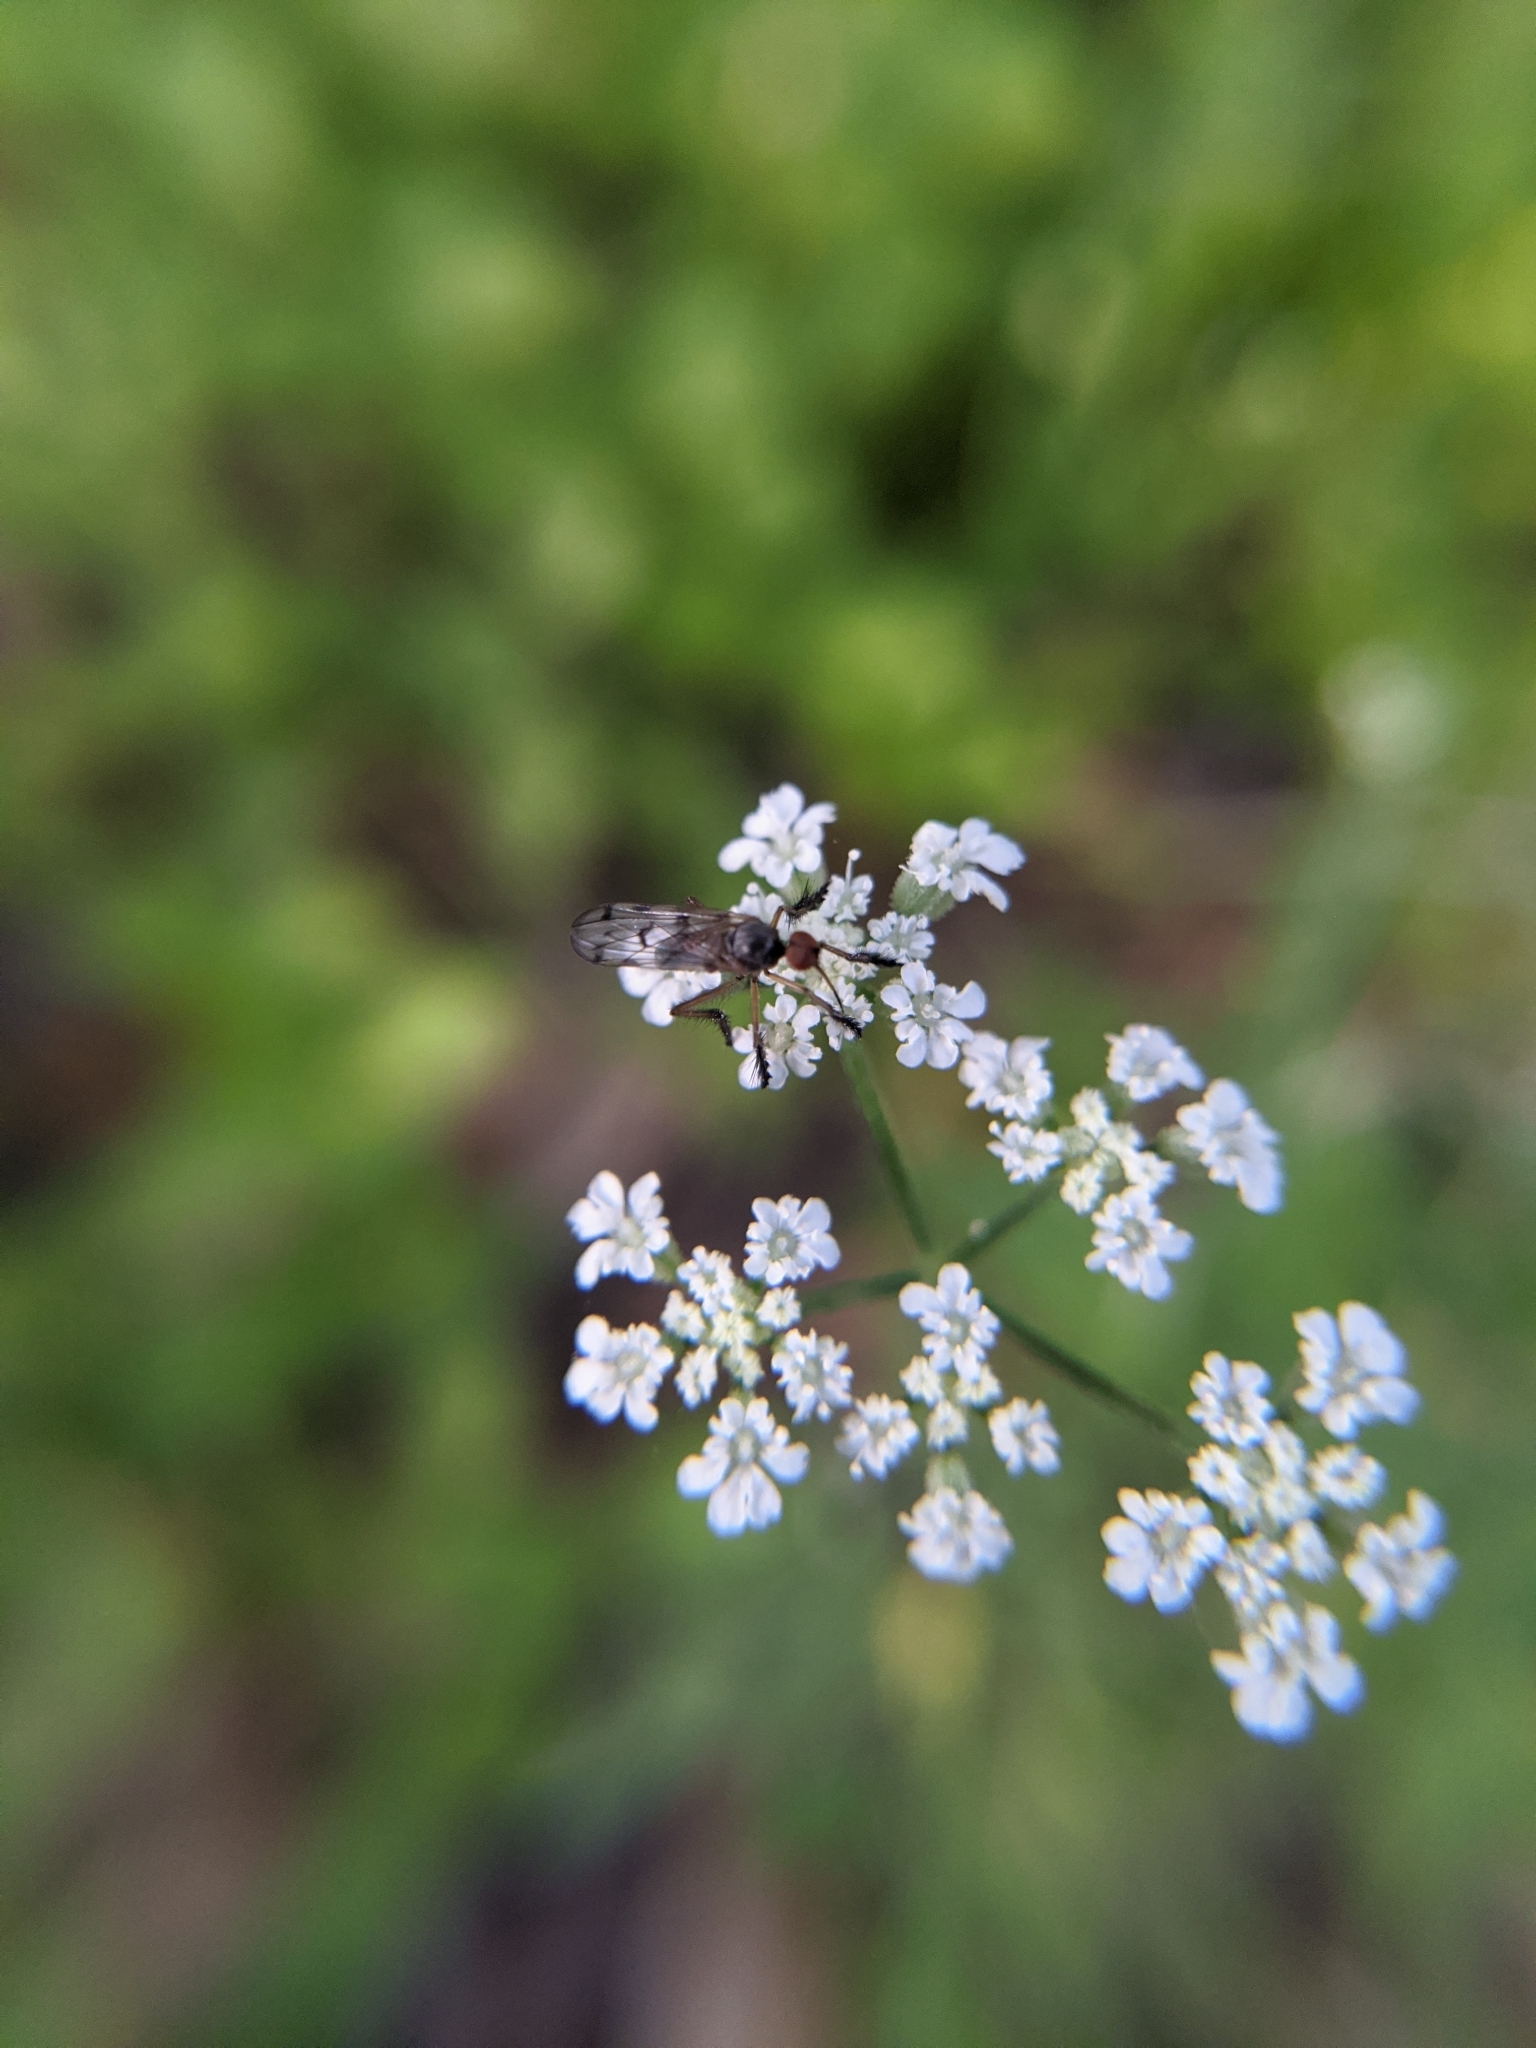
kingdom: Animalia
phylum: Arthropoda
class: Insecta
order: Diptera
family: Empididae
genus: Empis
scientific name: Empis clausa
